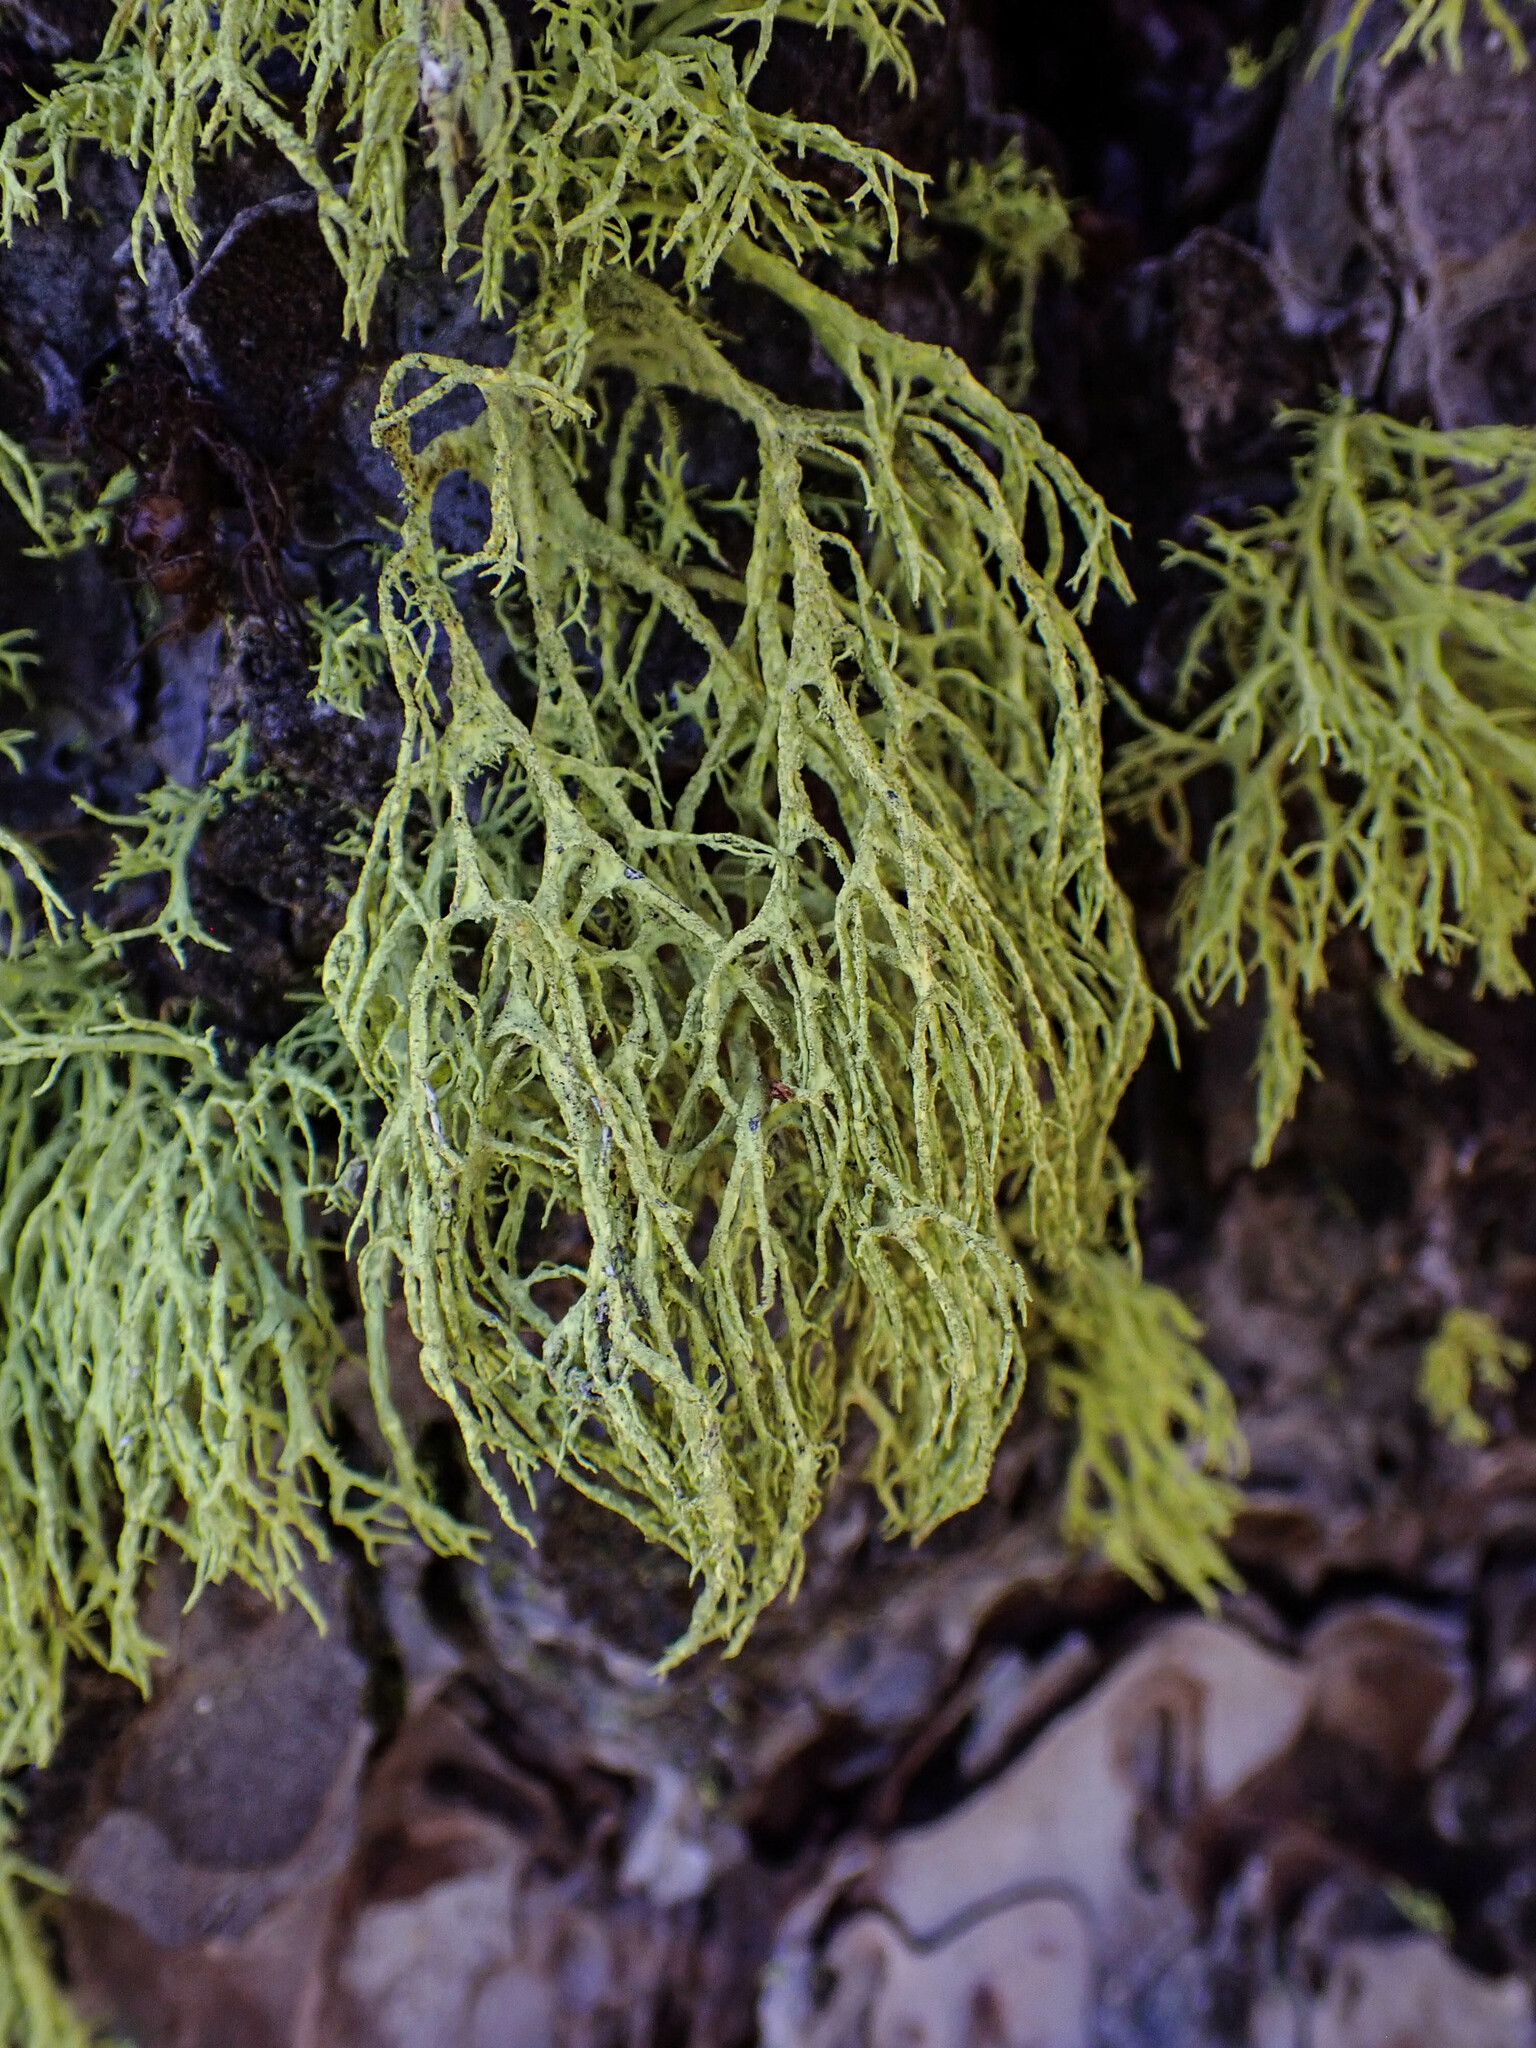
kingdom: Fungi
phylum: Ascomycota
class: Lecanoromycetes
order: Lecanorales
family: Parmeliaceae
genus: Letharia
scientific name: Letharia vulpina
